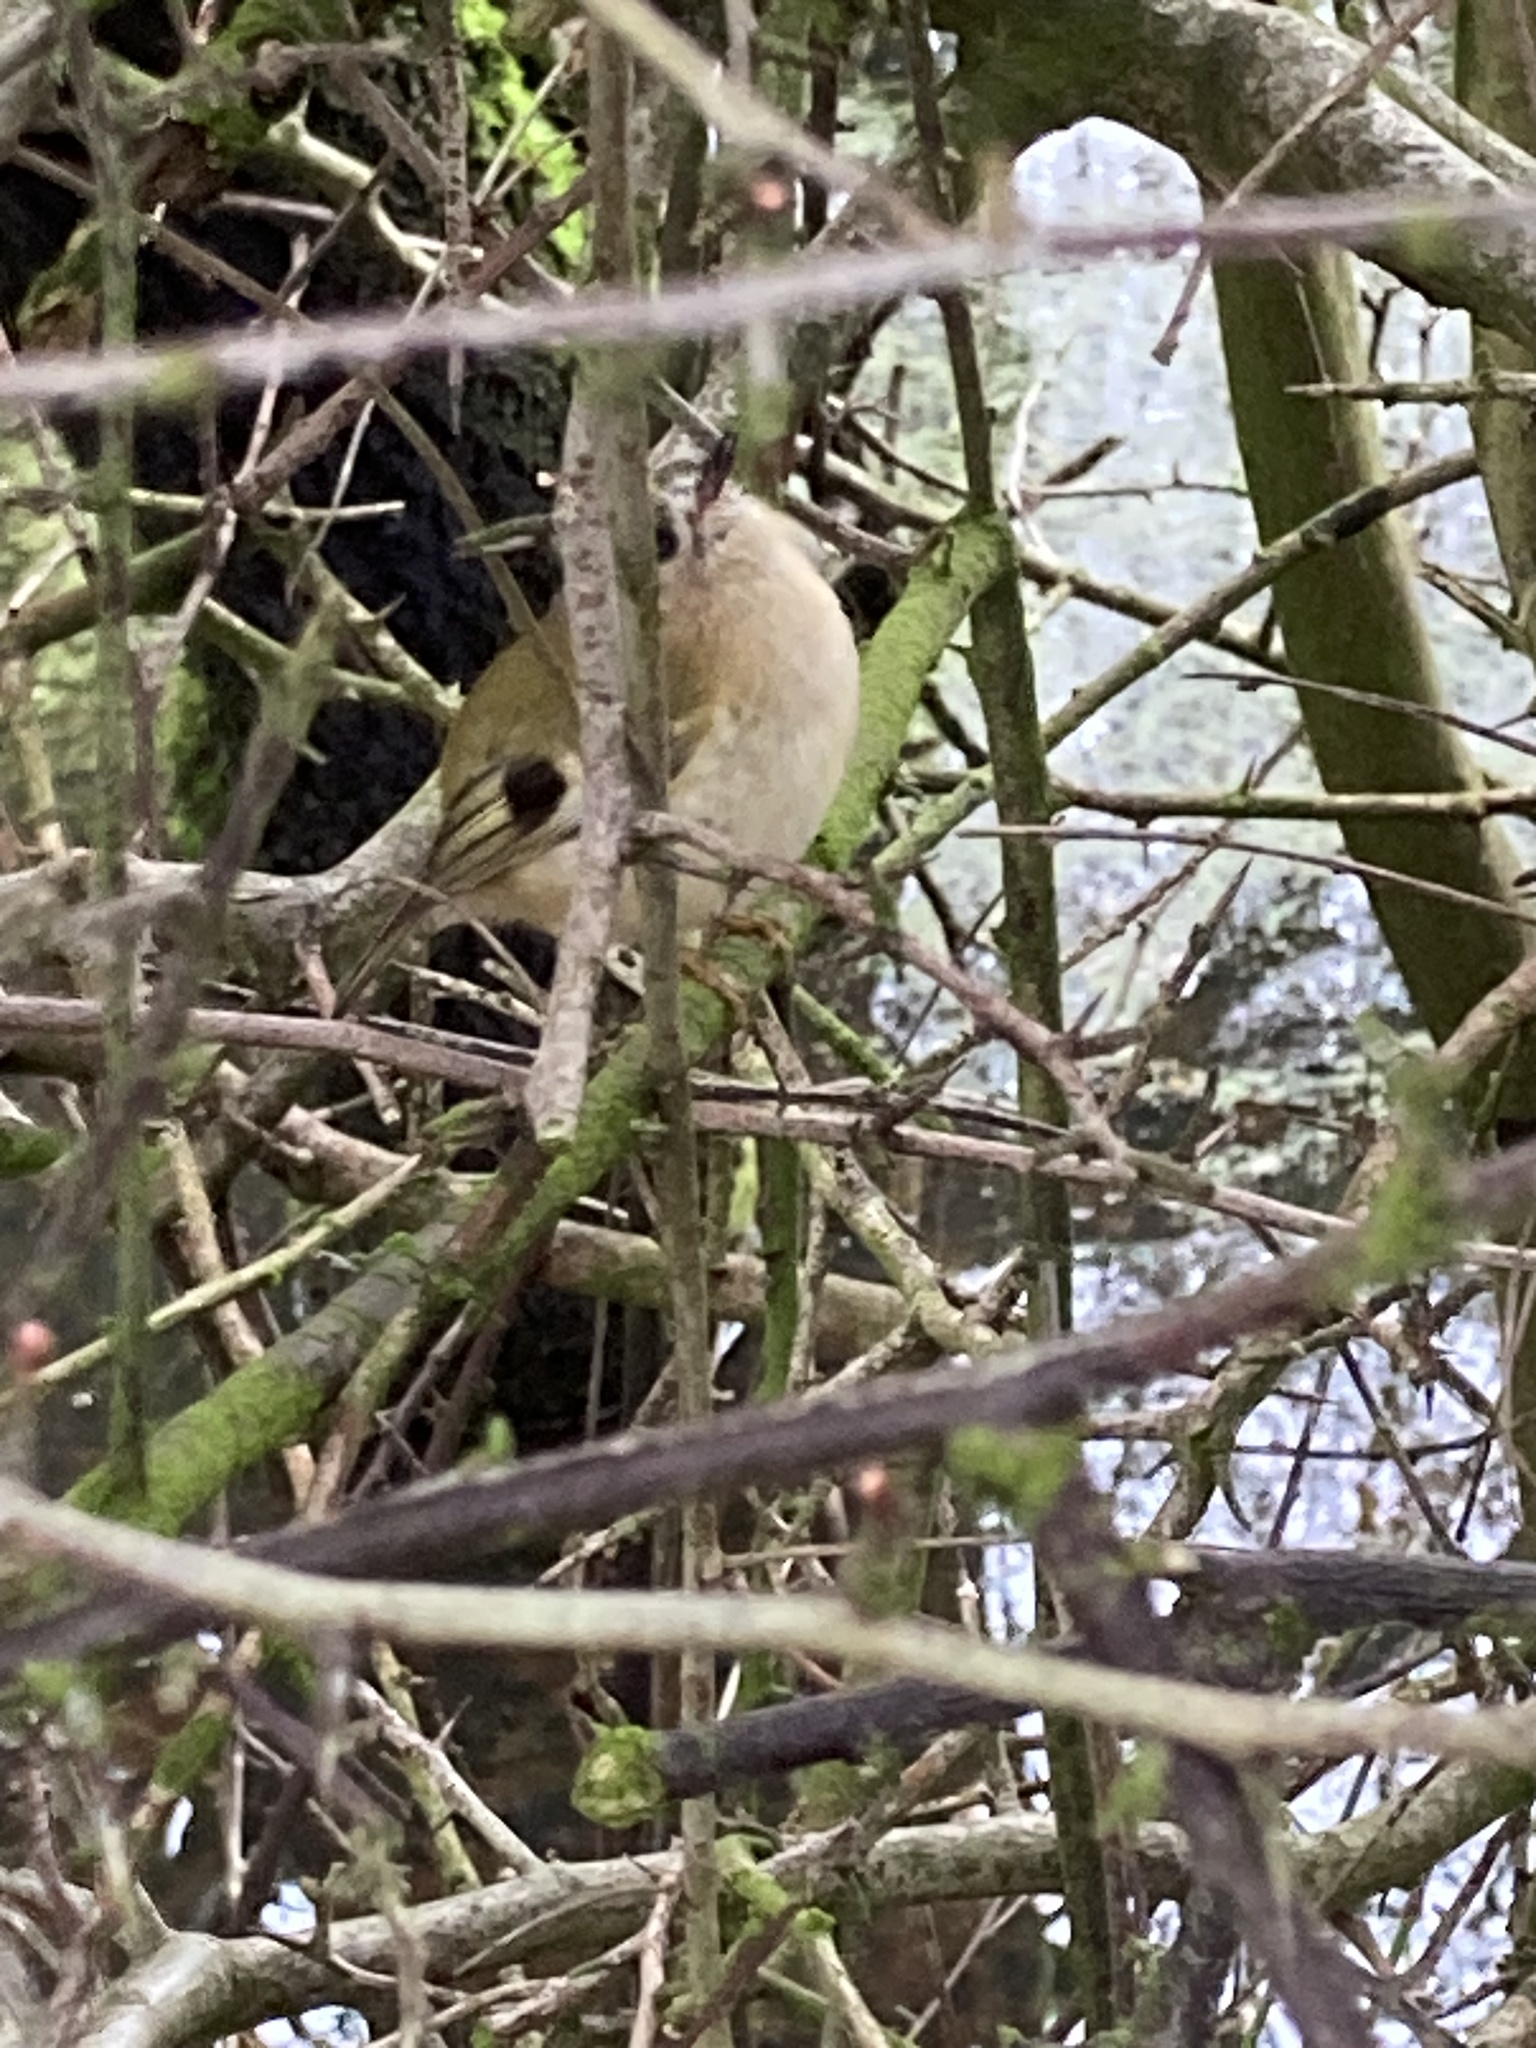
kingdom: Animalia
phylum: Chordata
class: Aves
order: Passeriformes
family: Regulidae
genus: Regulus
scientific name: Regulus regulus
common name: Goldcrest
